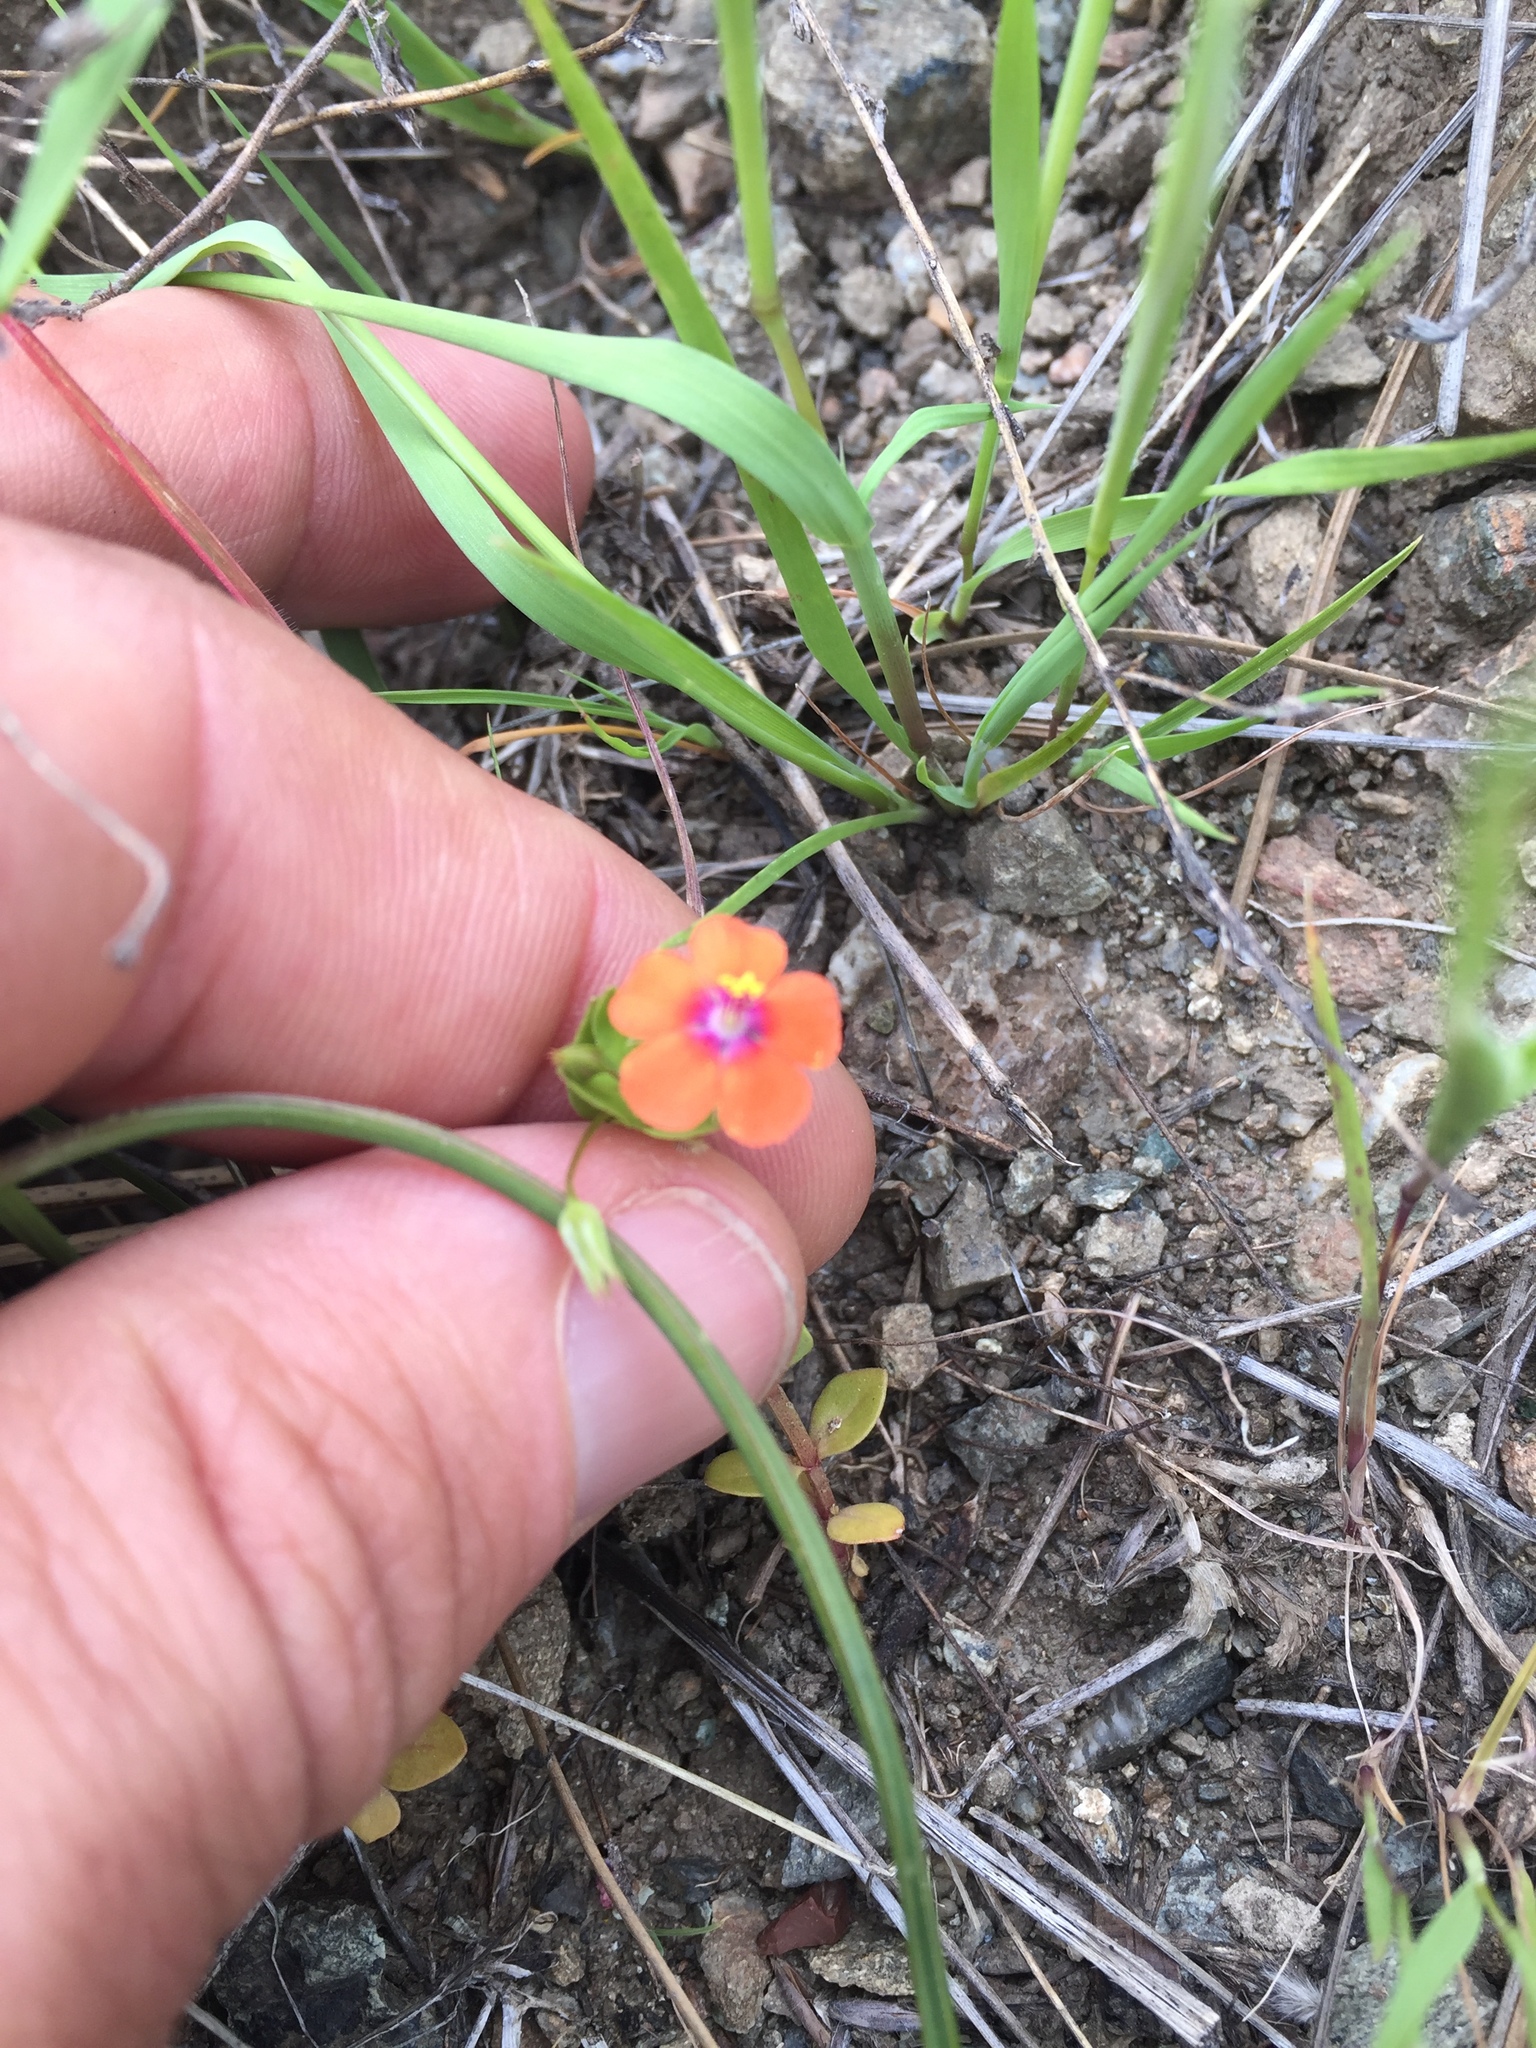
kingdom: Plantae
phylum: Tracheophyta
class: Magnoliopsida
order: Ericales
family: Primulaceae
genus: Lysimachia
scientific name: Lysimachia arvensis
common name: Scarlet pimpernel
